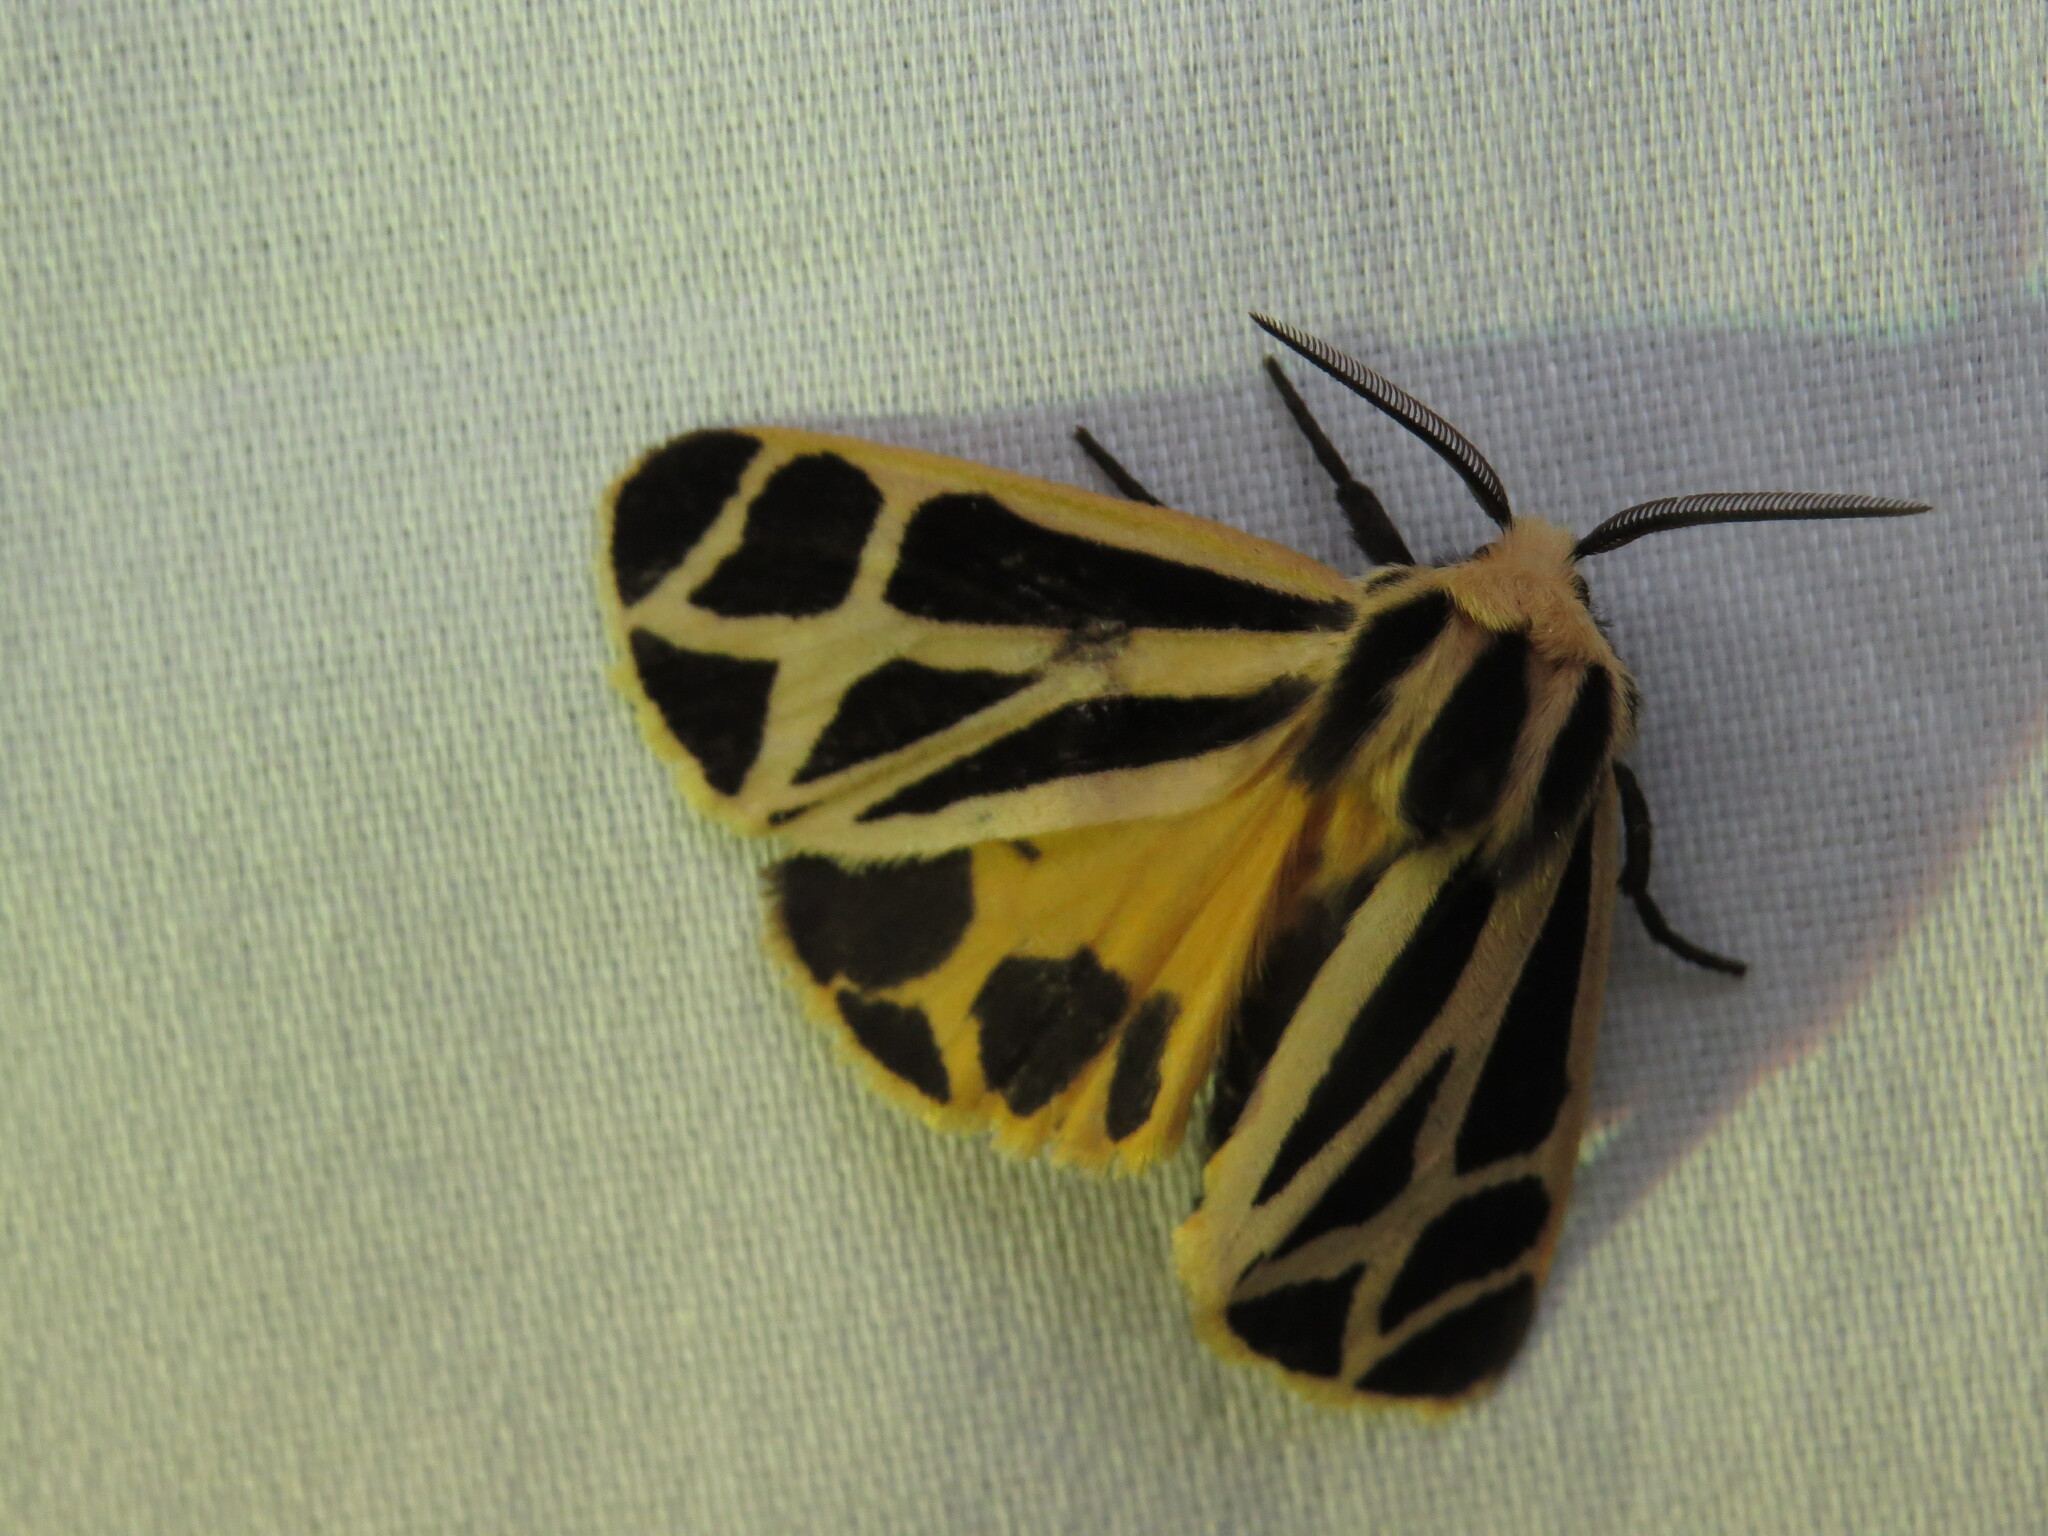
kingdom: Animalia
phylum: Arthropoda
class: Insecta
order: Lepidoptera
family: Erebidae
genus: Apantesis
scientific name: Apantesis nais
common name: Nais tiger moth
